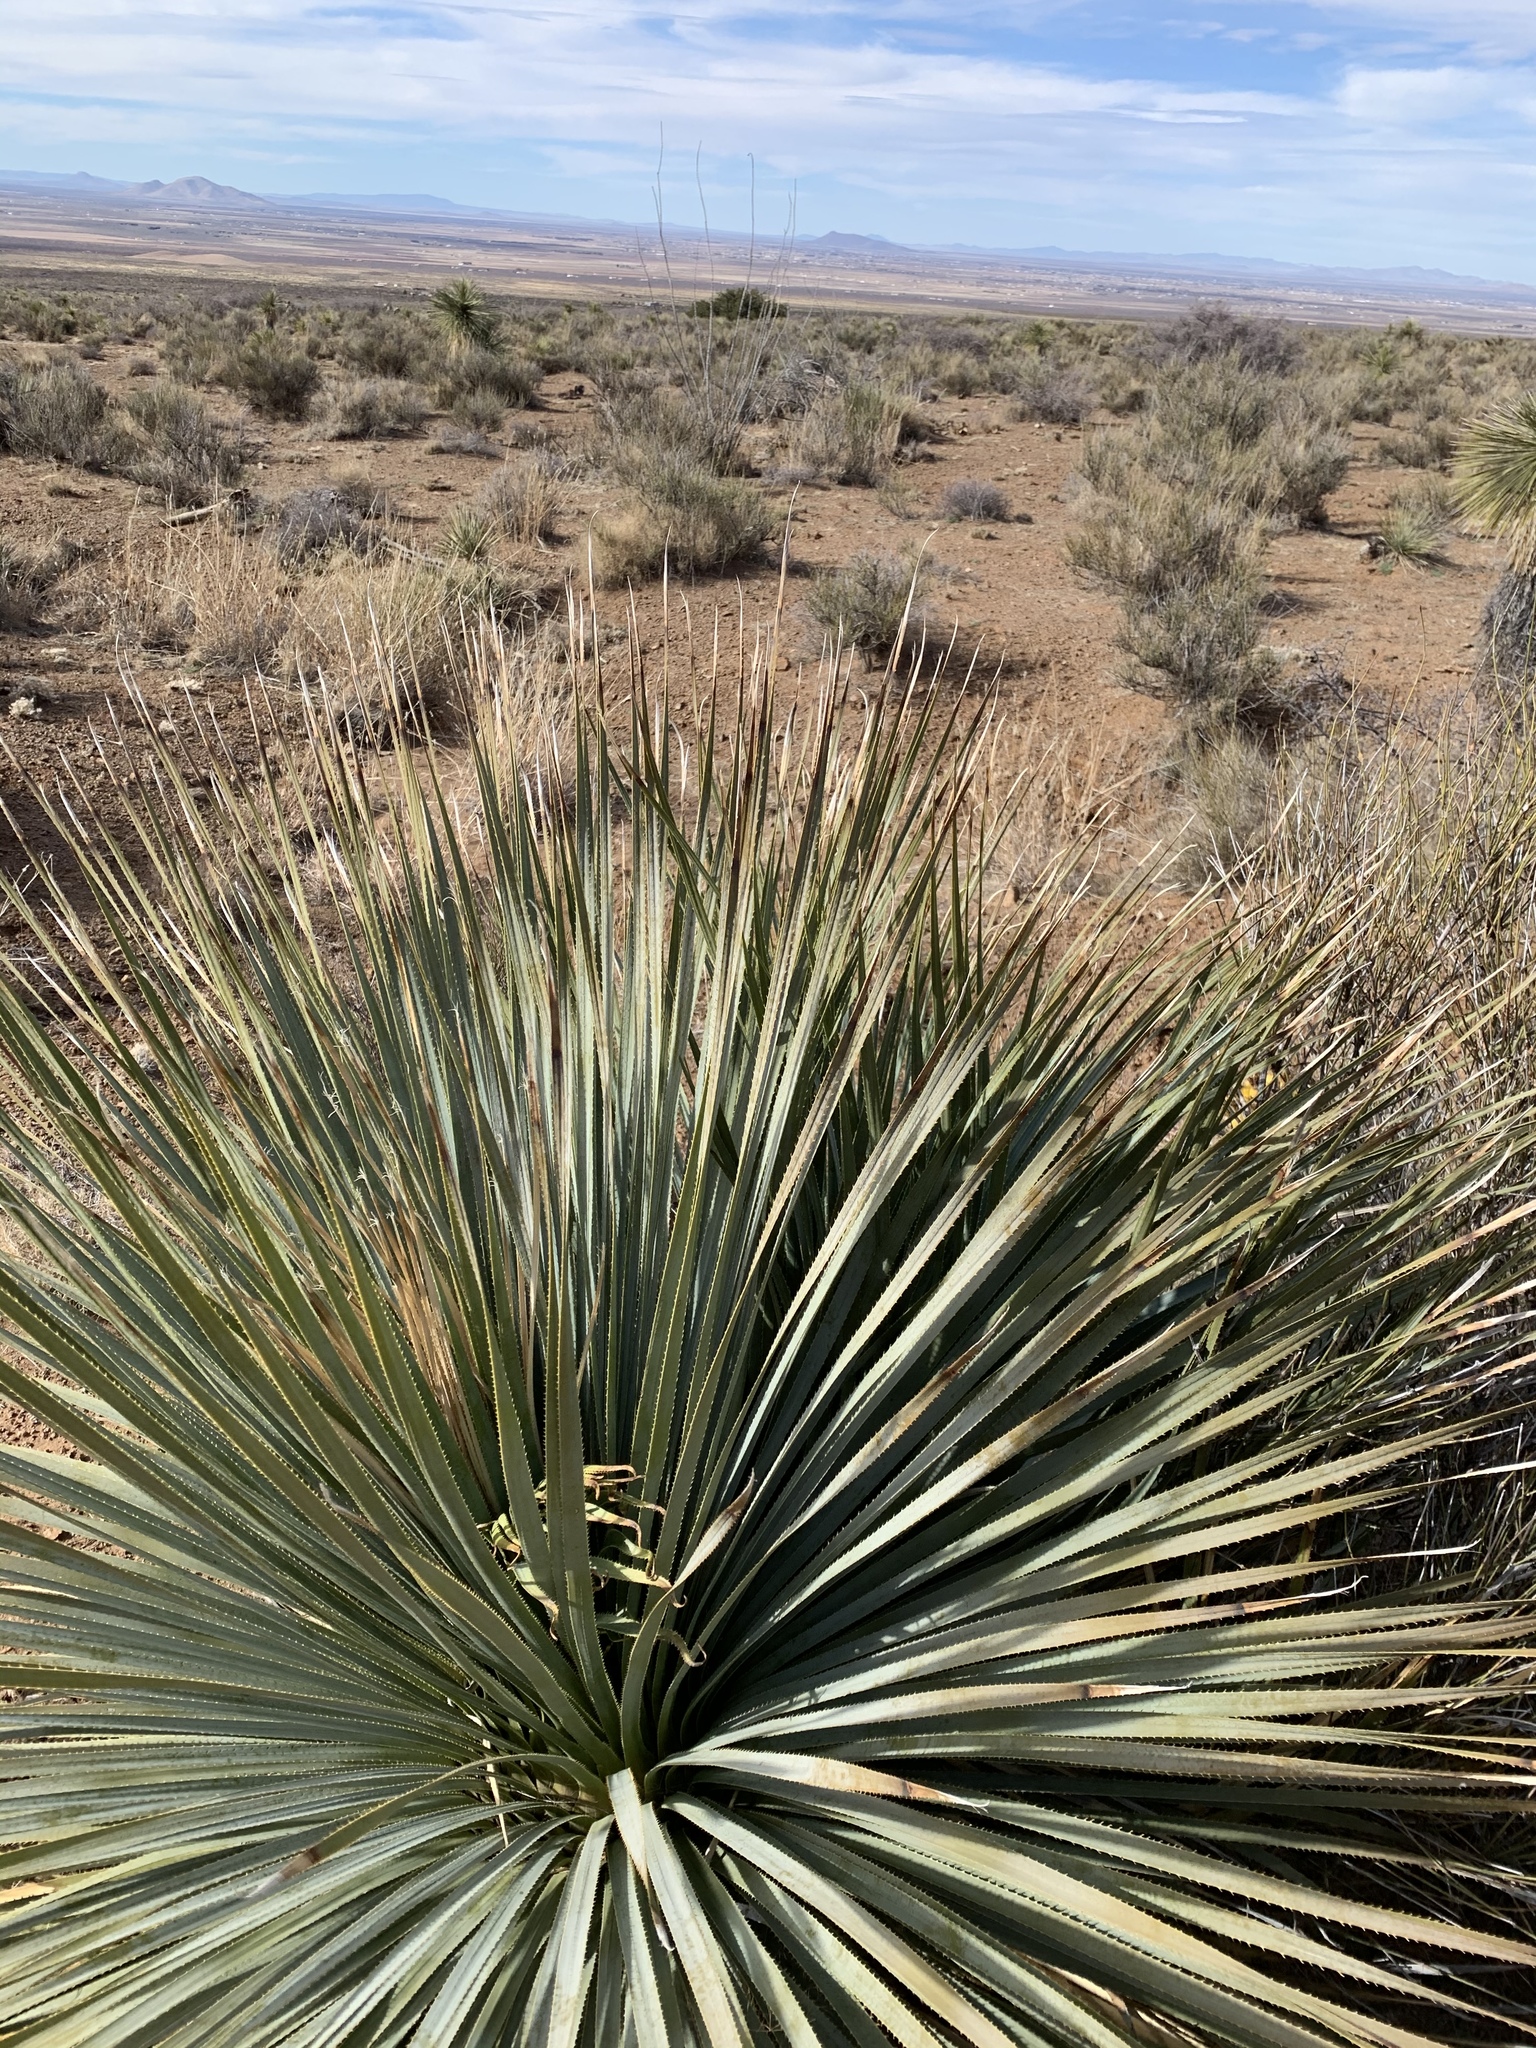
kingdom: Plantae
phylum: Tracheophyta
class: Liliopsida
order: Asparagales
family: Asparagaceae
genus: Dasylirion
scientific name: Dasylirion wheeleri
